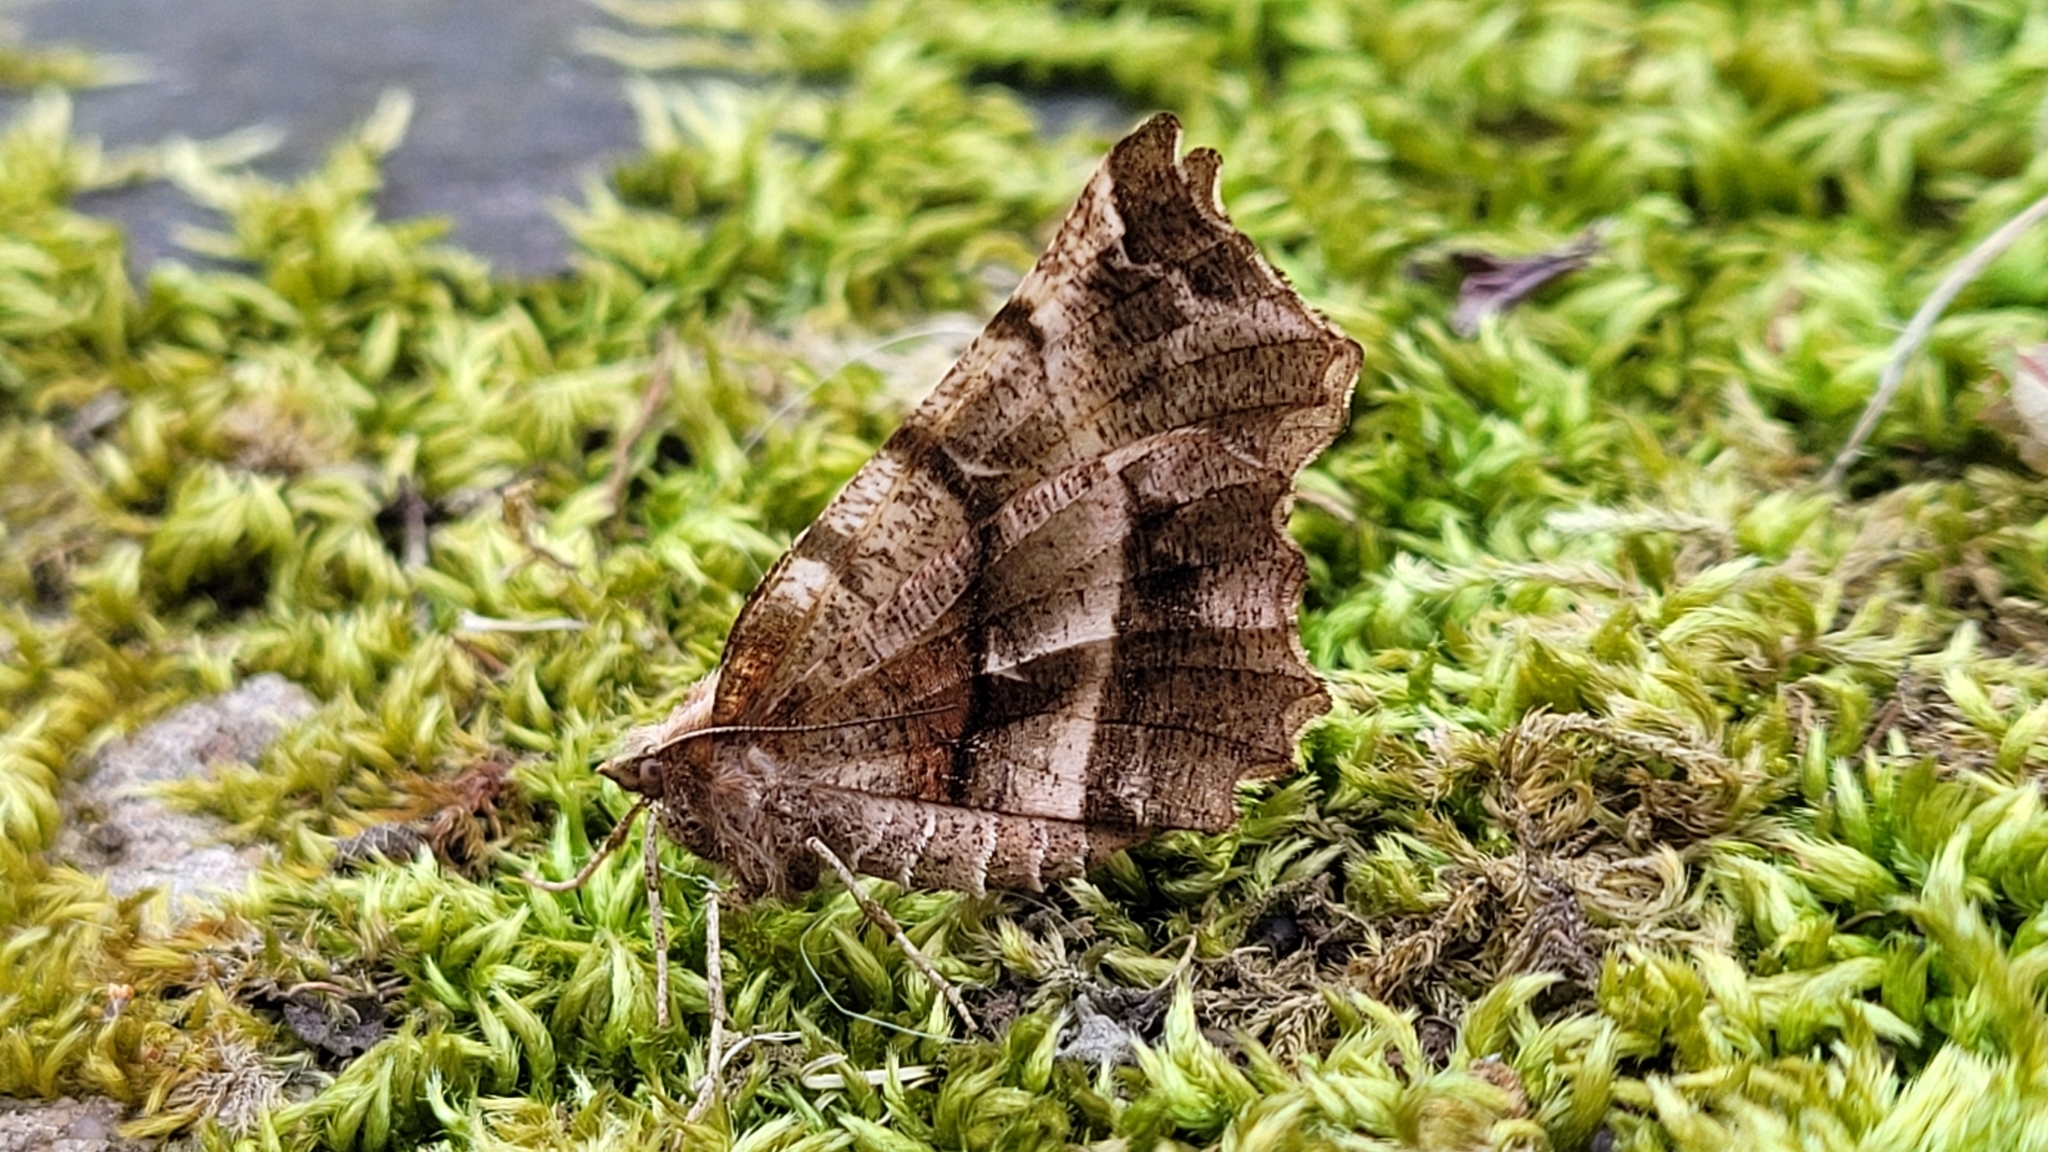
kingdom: Animalia
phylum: Arthropoda
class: Insecta
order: Lepidoptera
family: Geometridae
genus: Selenia
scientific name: Selenia dentaria
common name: Early thorn
